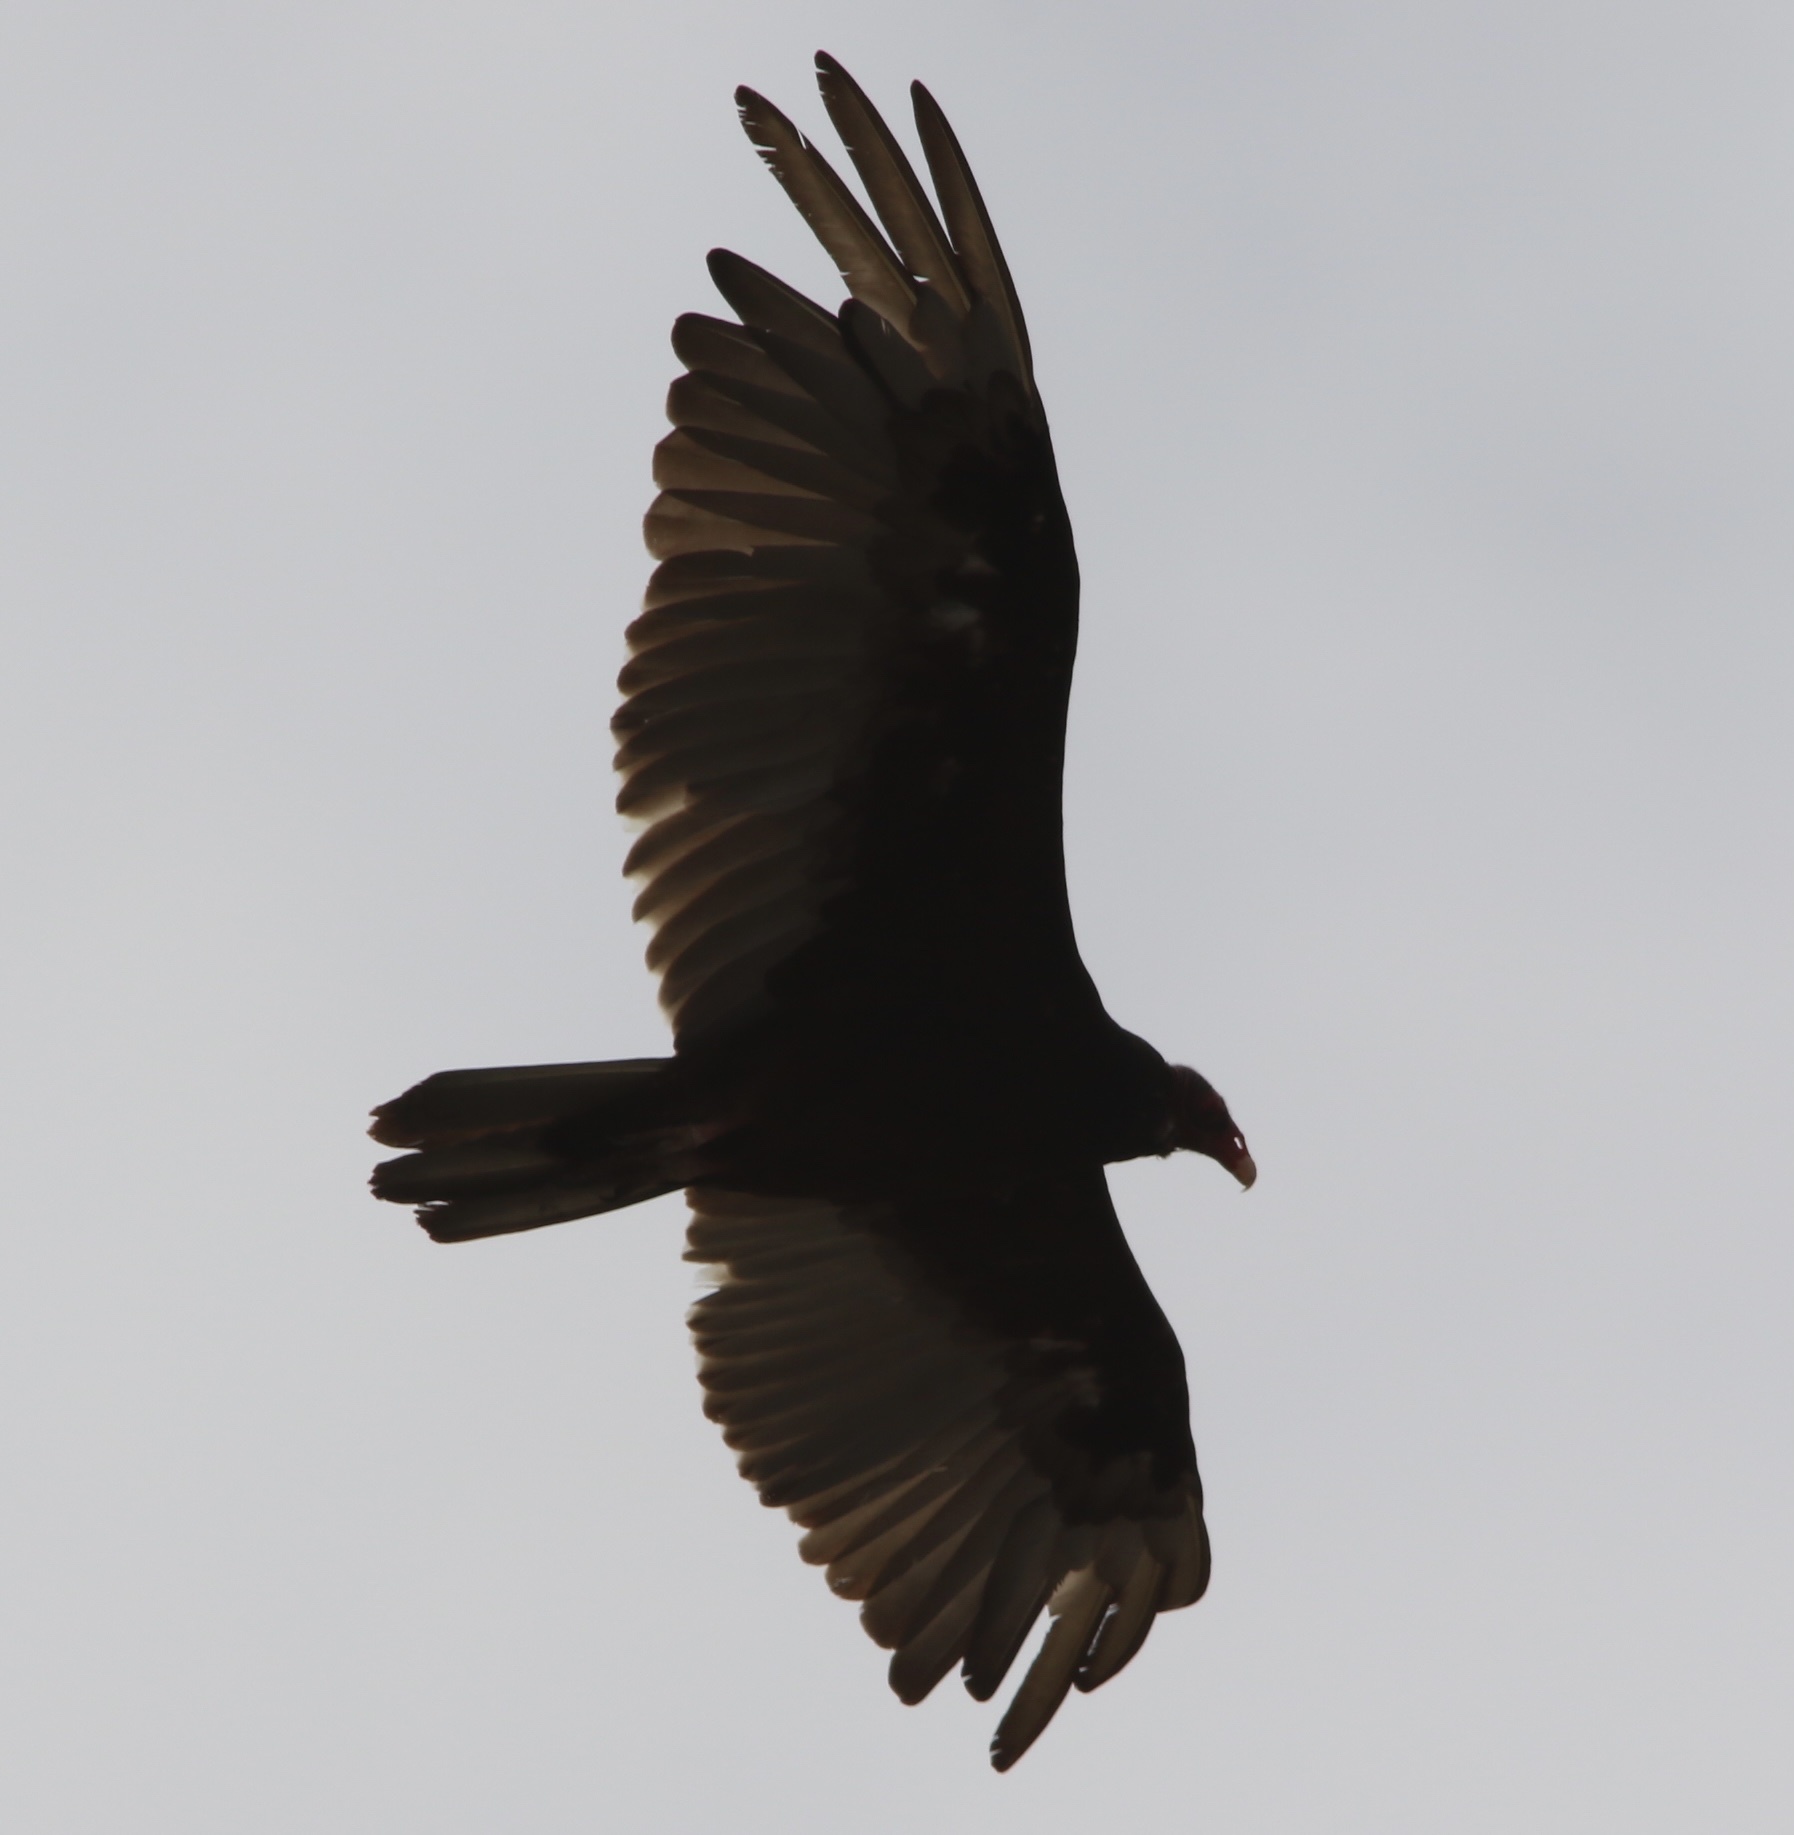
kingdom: Animalia
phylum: Chordata
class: Aves
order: Accipitriformes
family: Cathartidae
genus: Cathartes
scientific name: Cathartes aura
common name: Turkey vulture
